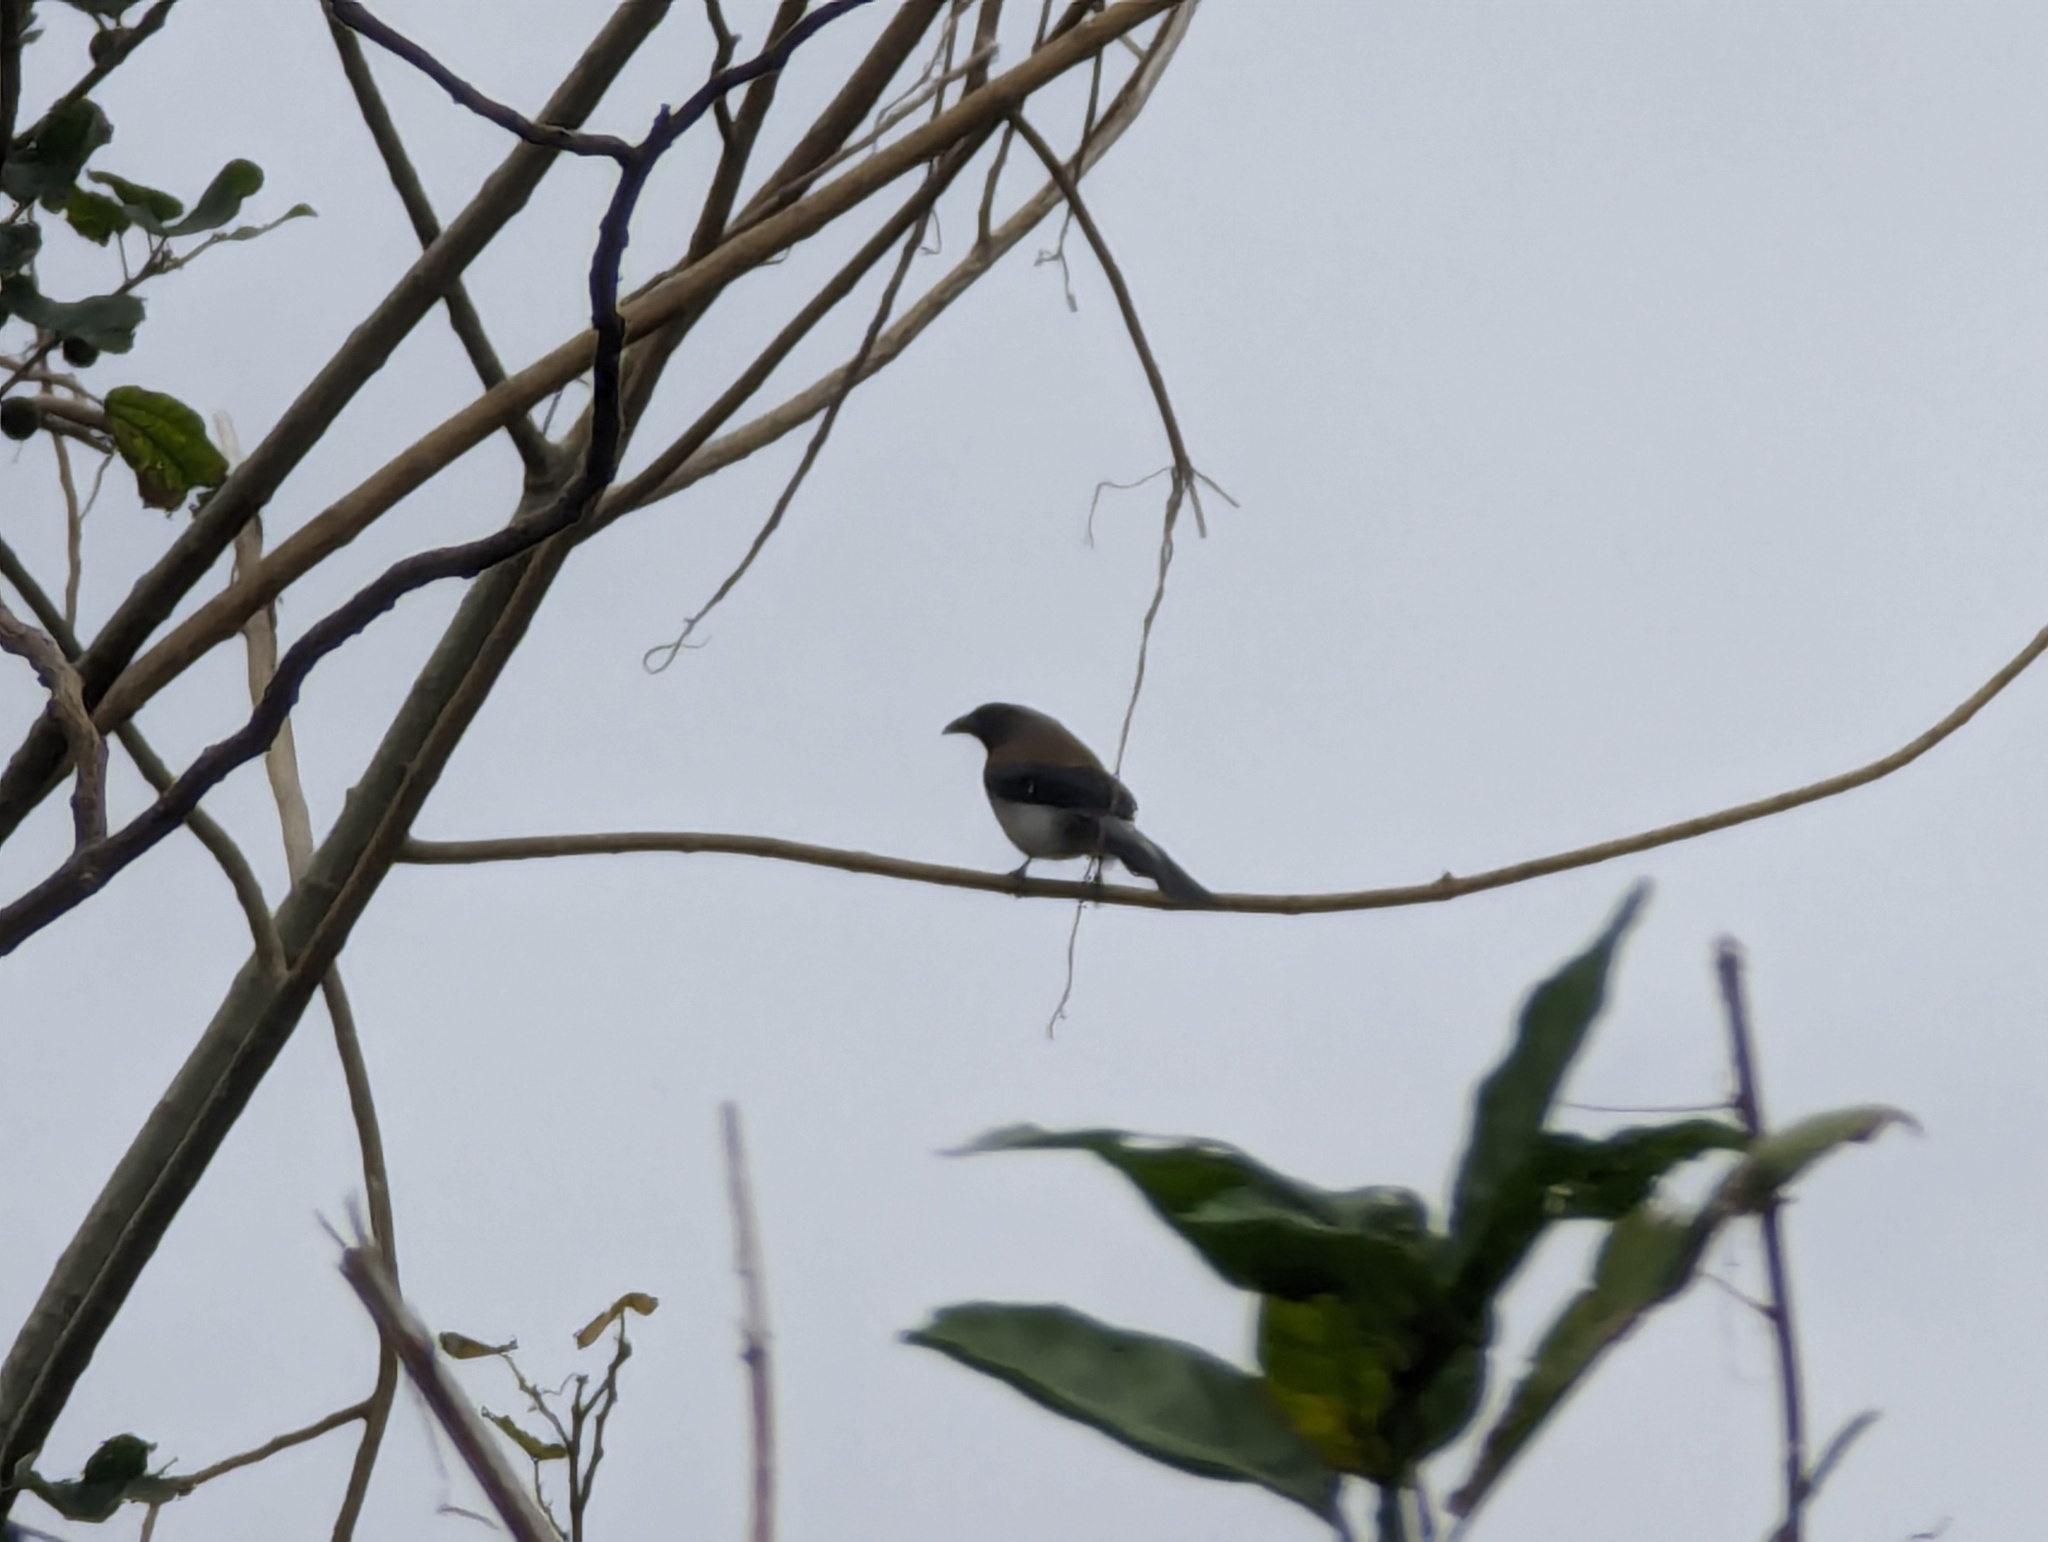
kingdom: Animalia
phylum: Chordata
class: Aves
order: Passeriformes
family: Corvidae
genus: Dendrocitta
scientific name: Dendrocitta formosae
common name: Grey treepie
